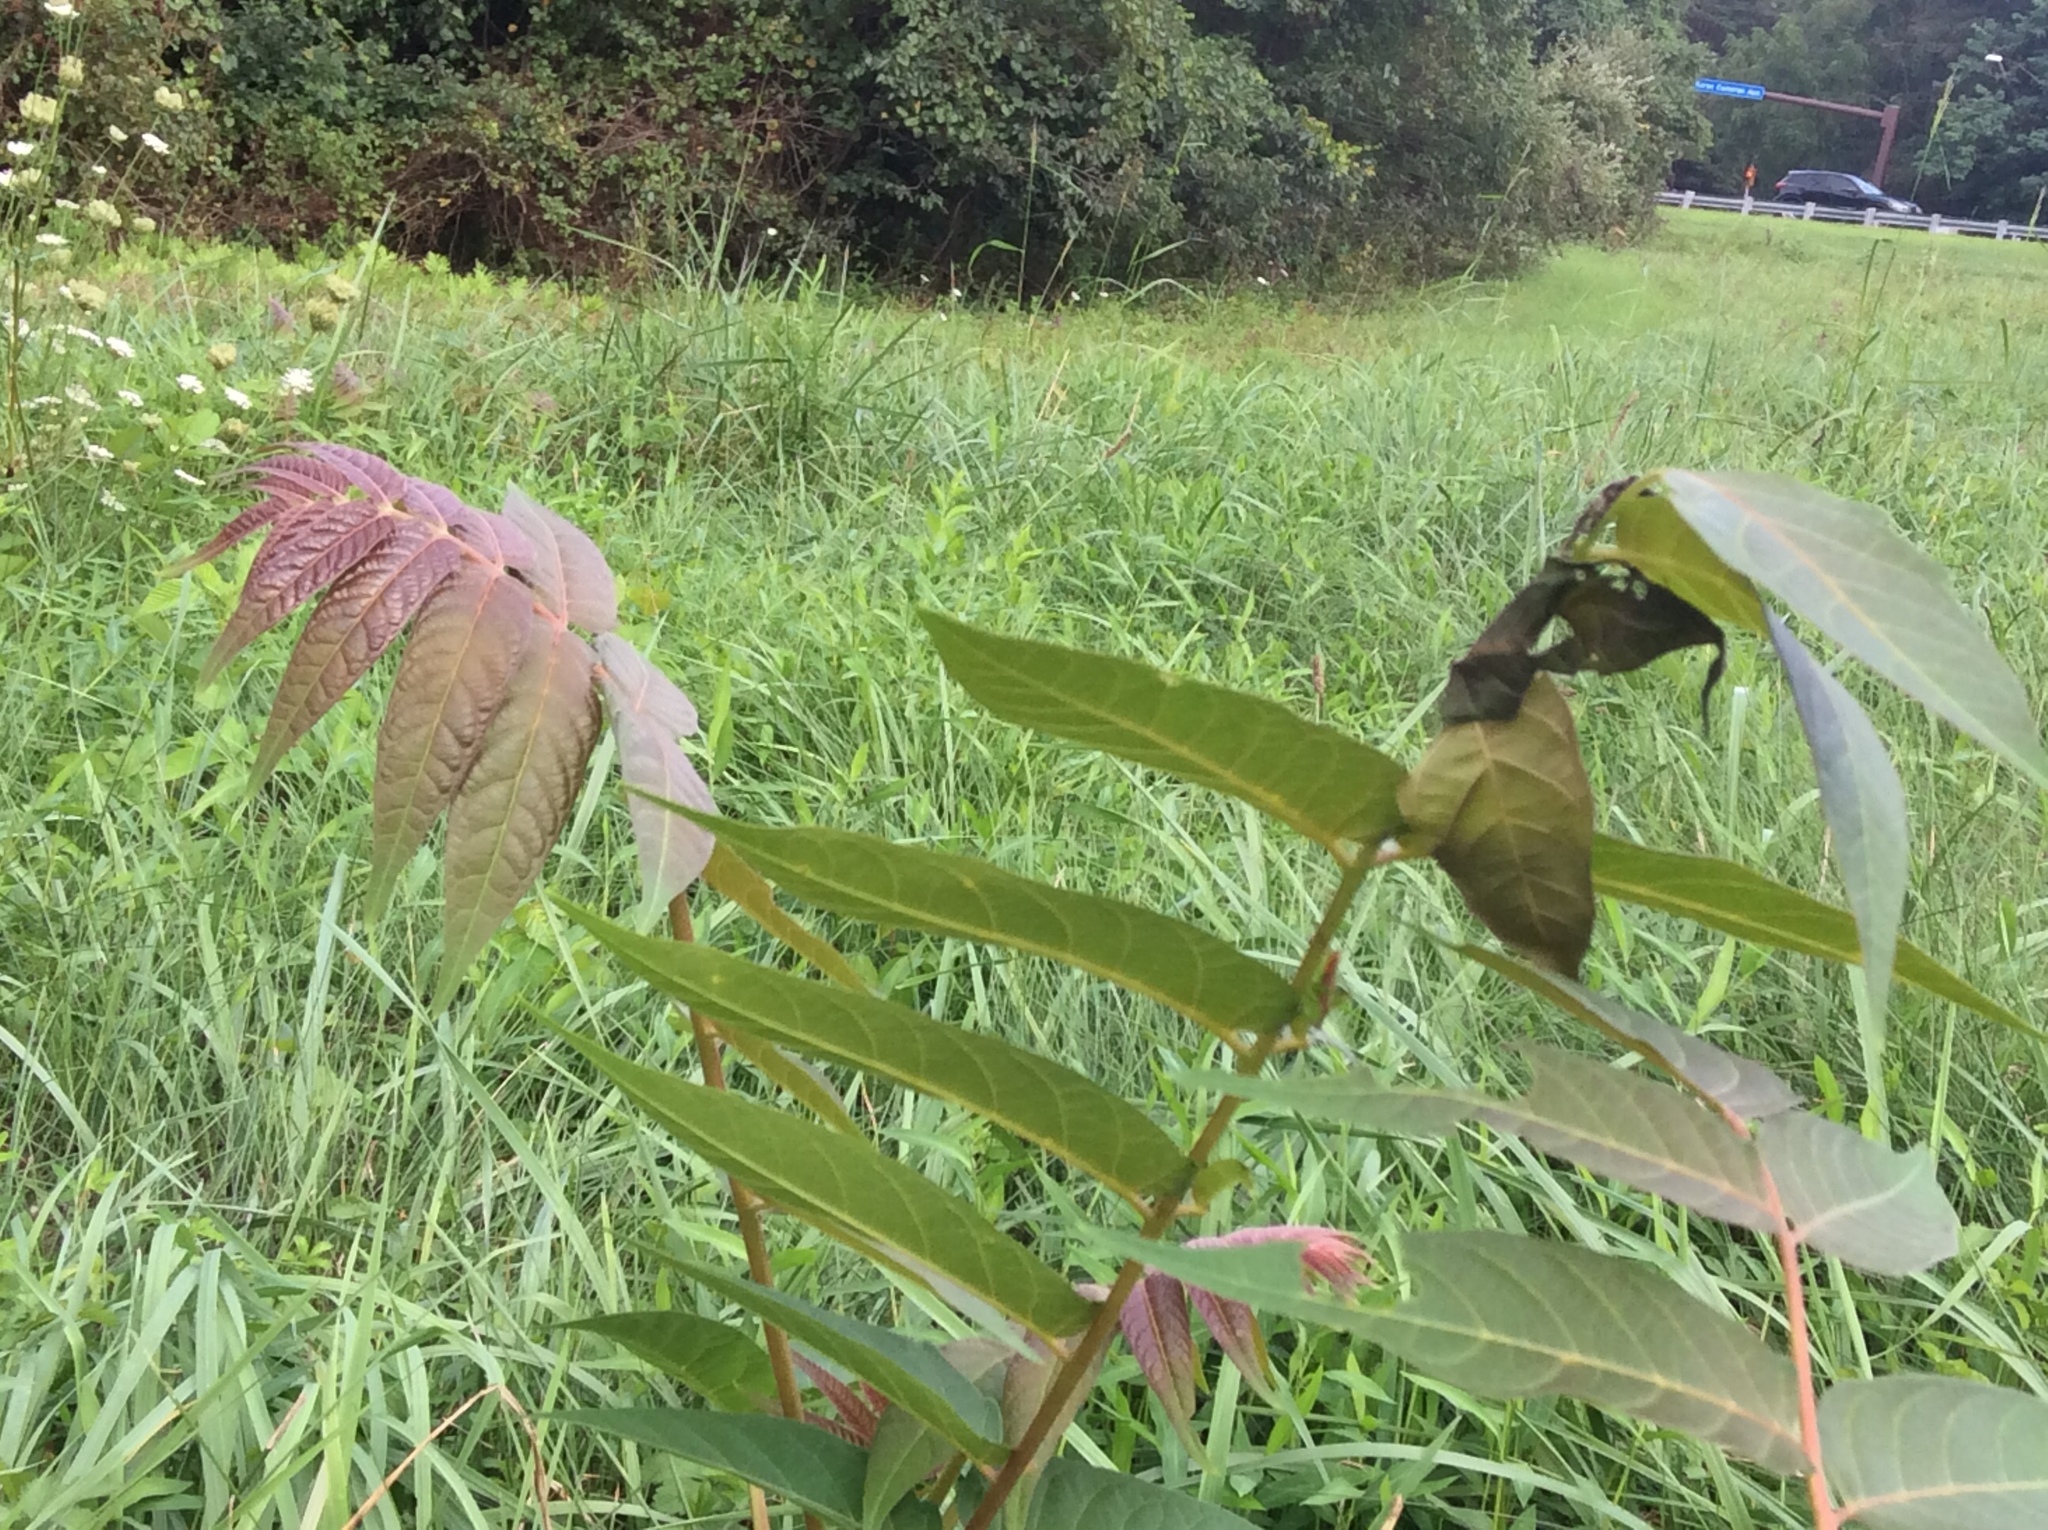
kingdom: Plantae
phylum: Tracheophyta
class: Magnoliopsida
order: Sapindales
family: Simaroubaceae
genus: Ailanthus
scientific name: Ailanthus altissima
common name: Tree-of-heaven
